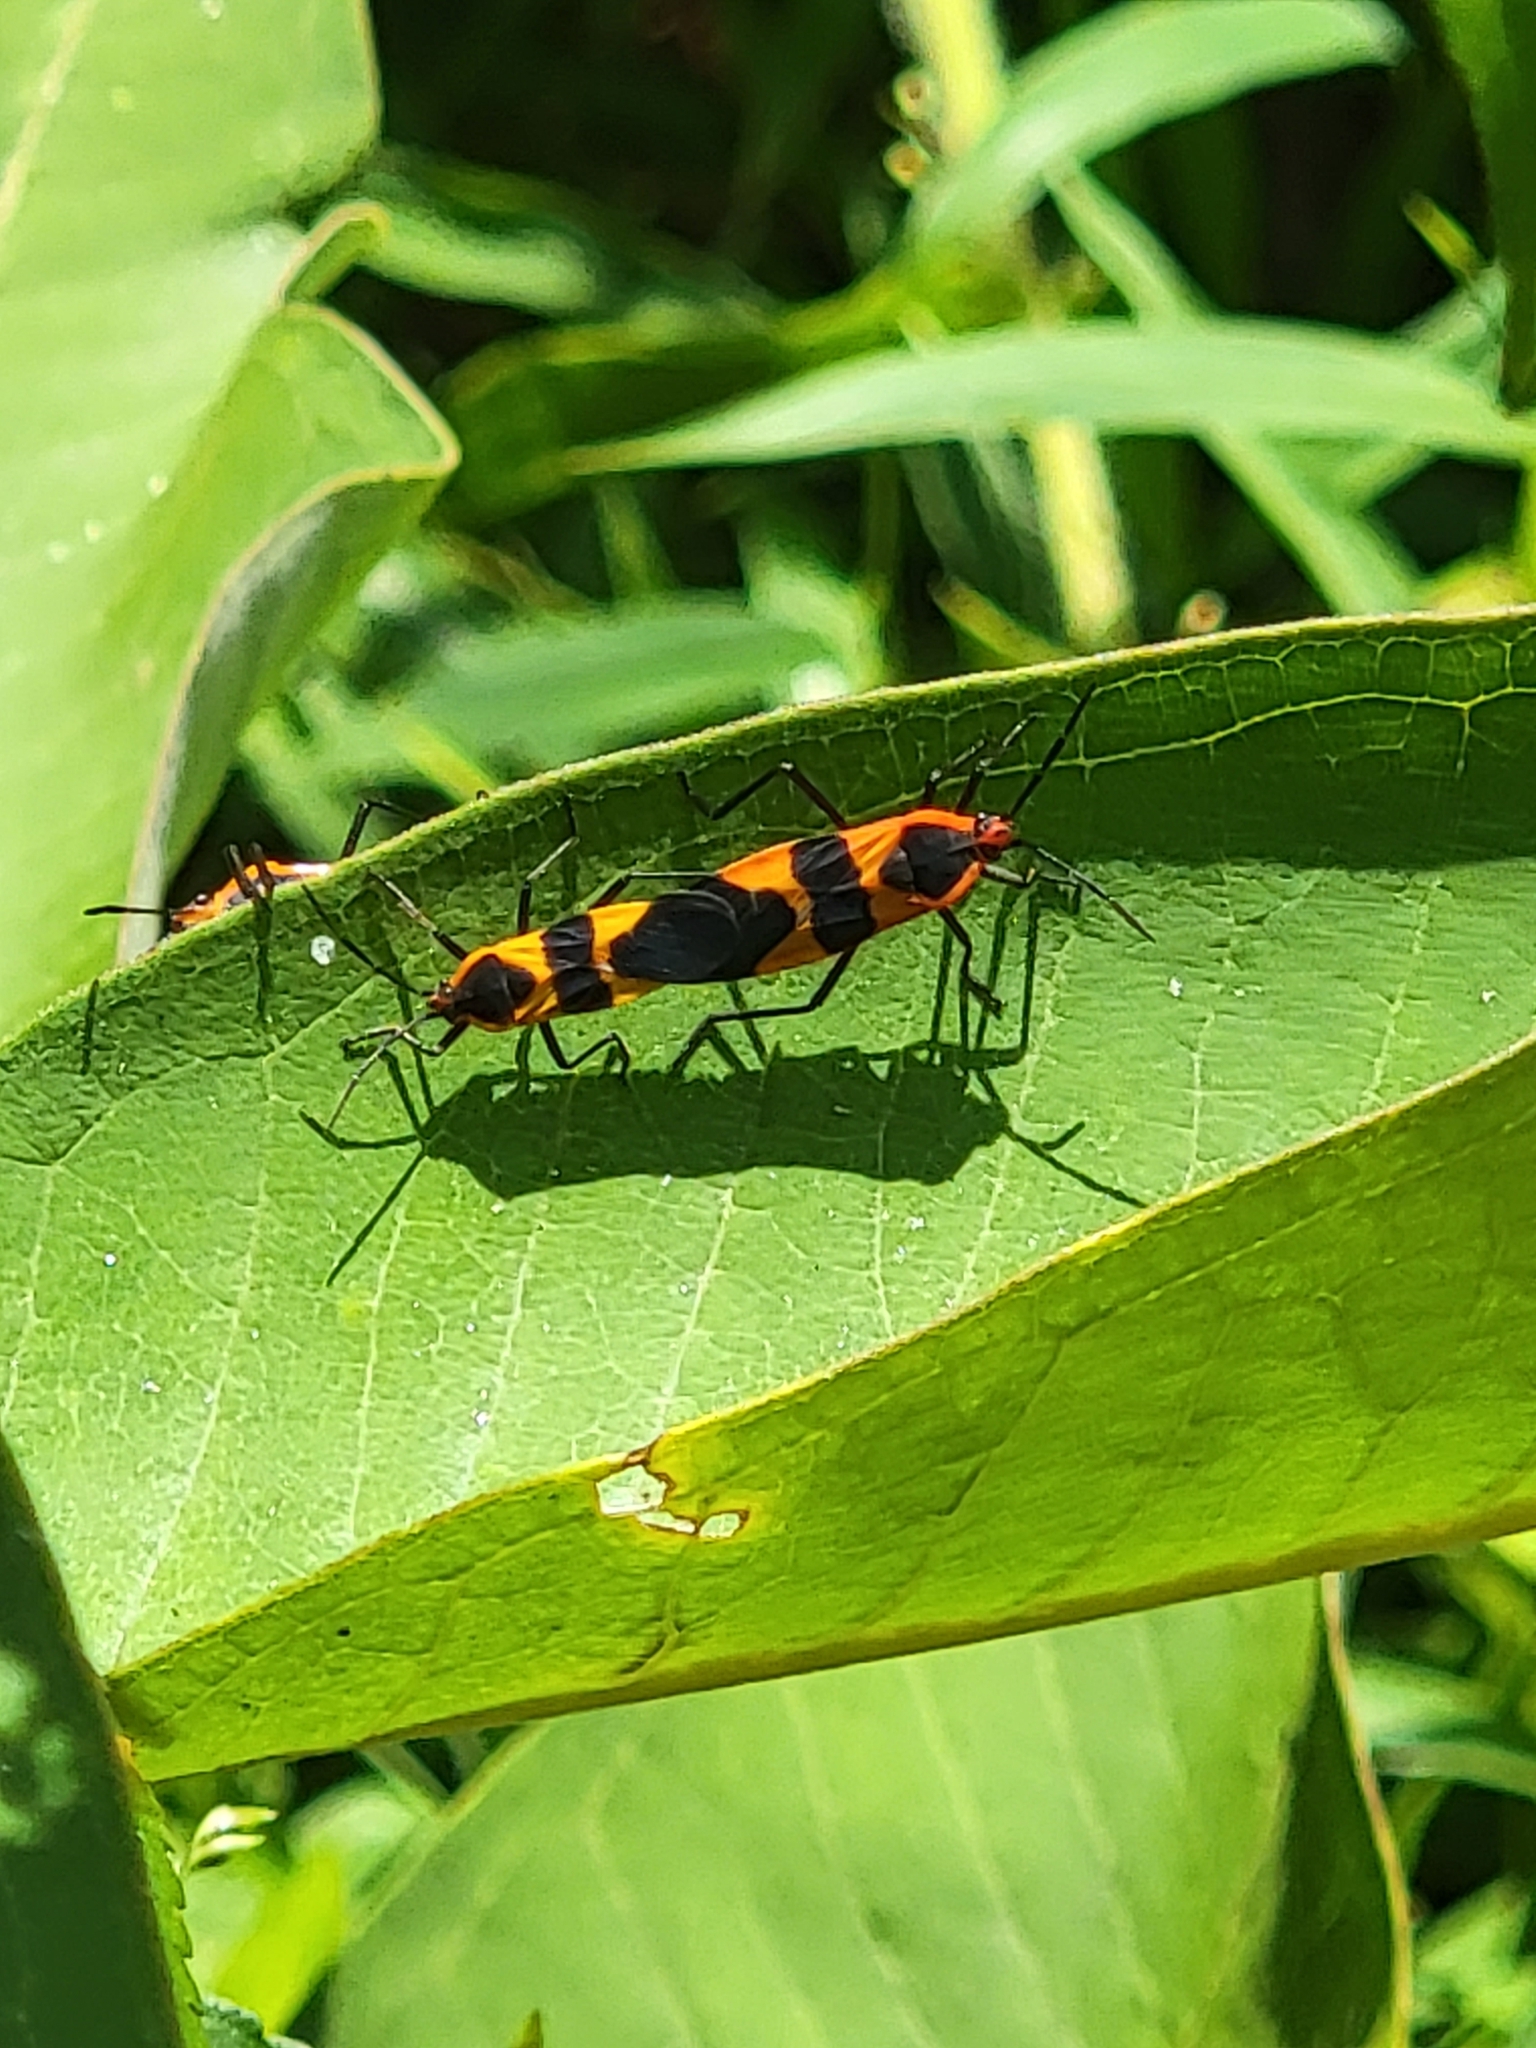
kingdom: Animalia
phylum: Arthropoda
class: Insecta
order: Hemiptera
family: Lygaeidae
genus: Oncopeltus
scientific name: Oncopeltus fasciatus
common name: Large milkweed bug
